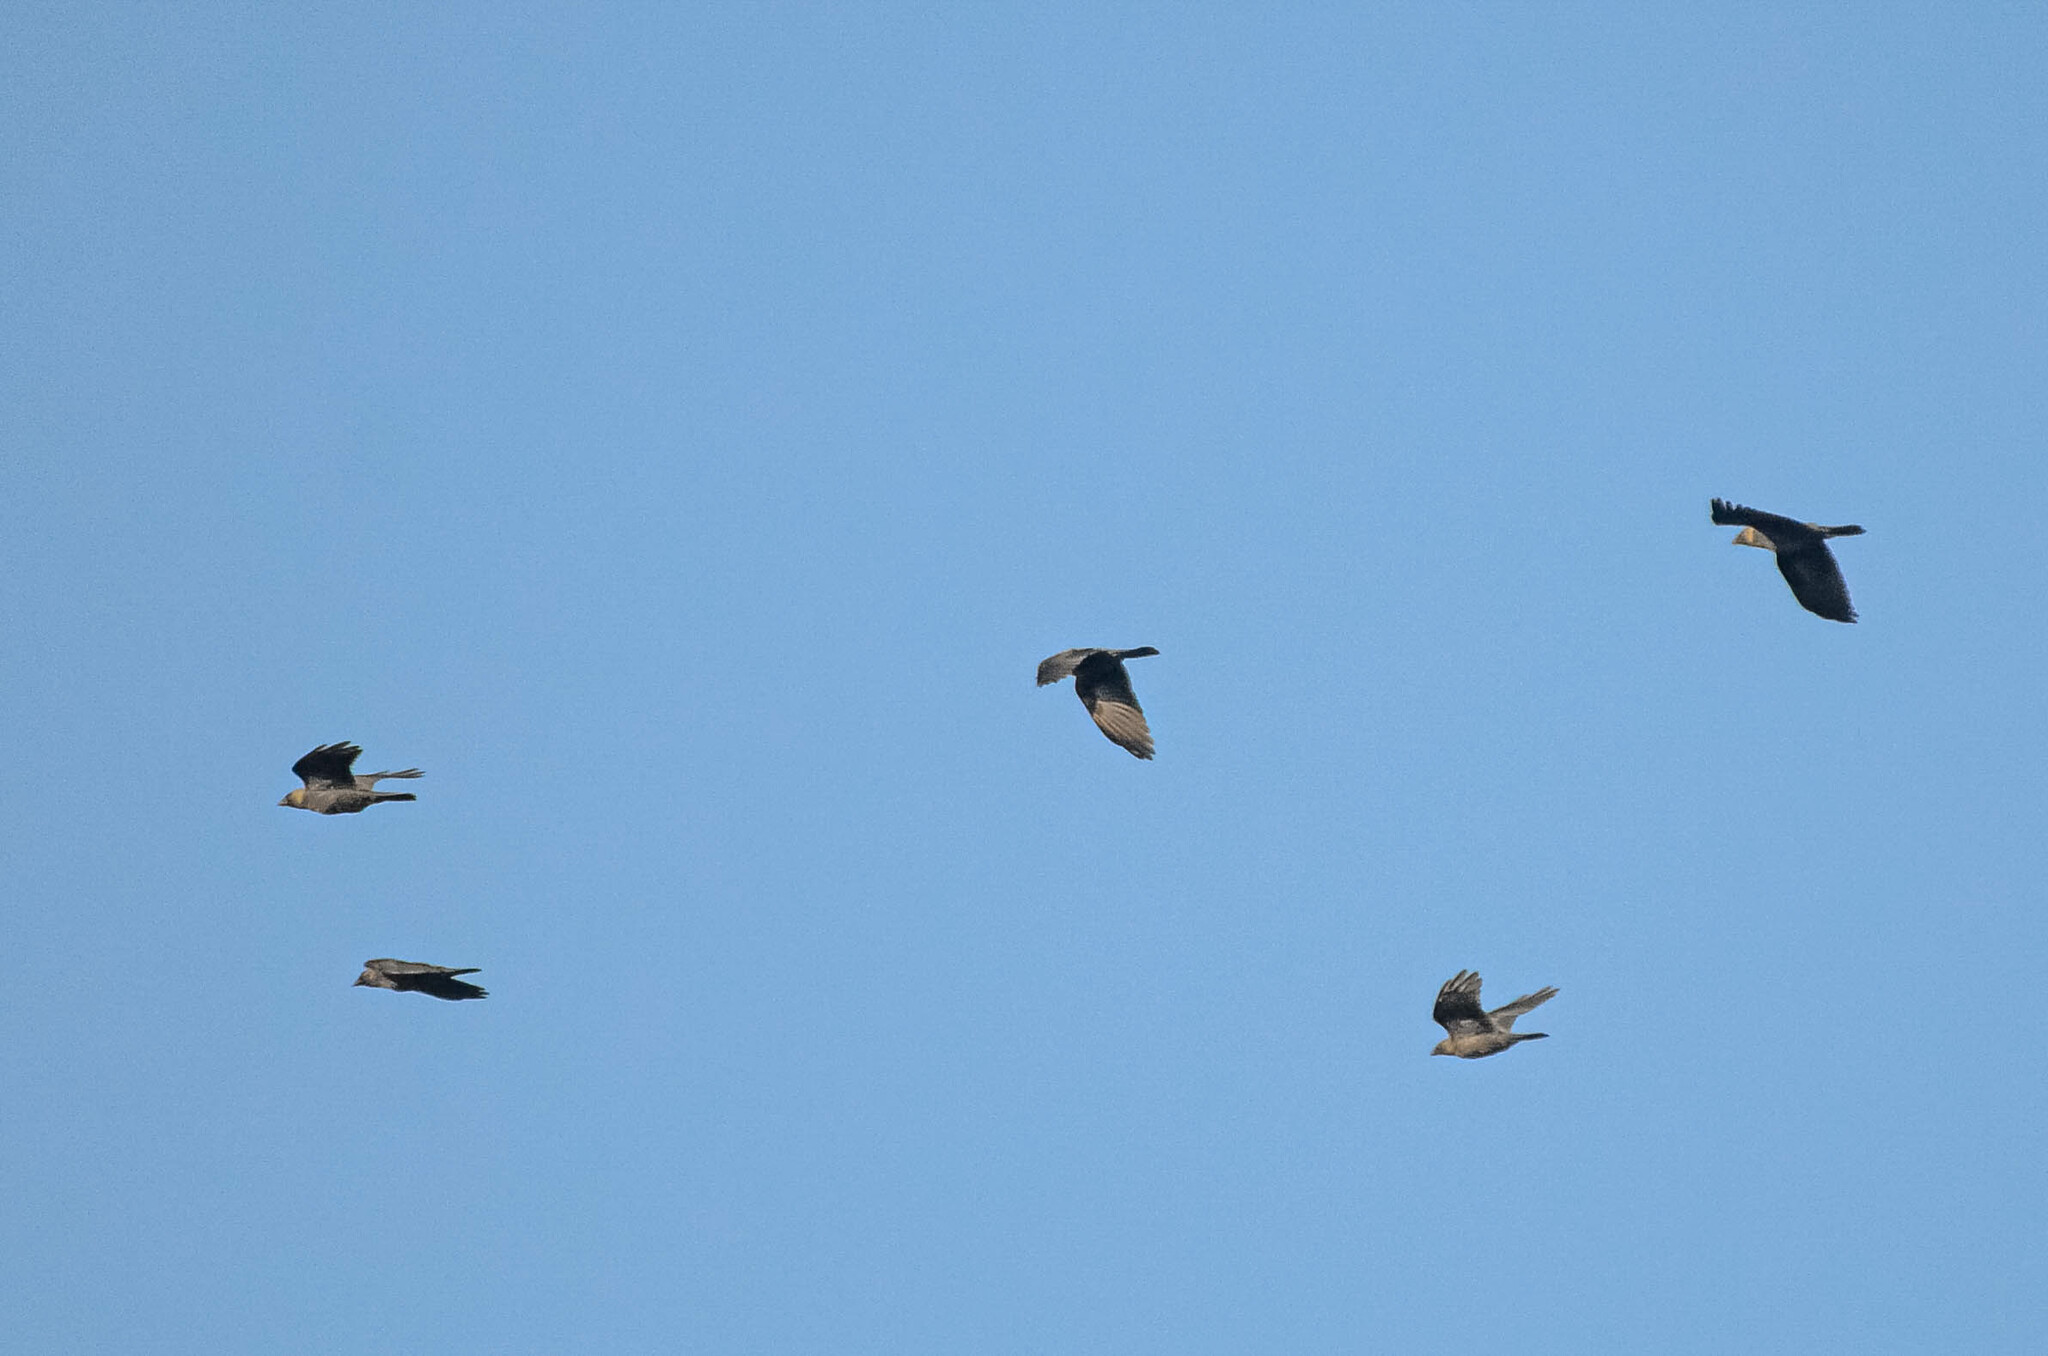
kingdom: Animalia
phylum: Chordata
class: Aves
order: Passeriformes
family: Corvidae
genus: Coloeus
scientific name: Coloeus monedula
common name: Western jackdaw
